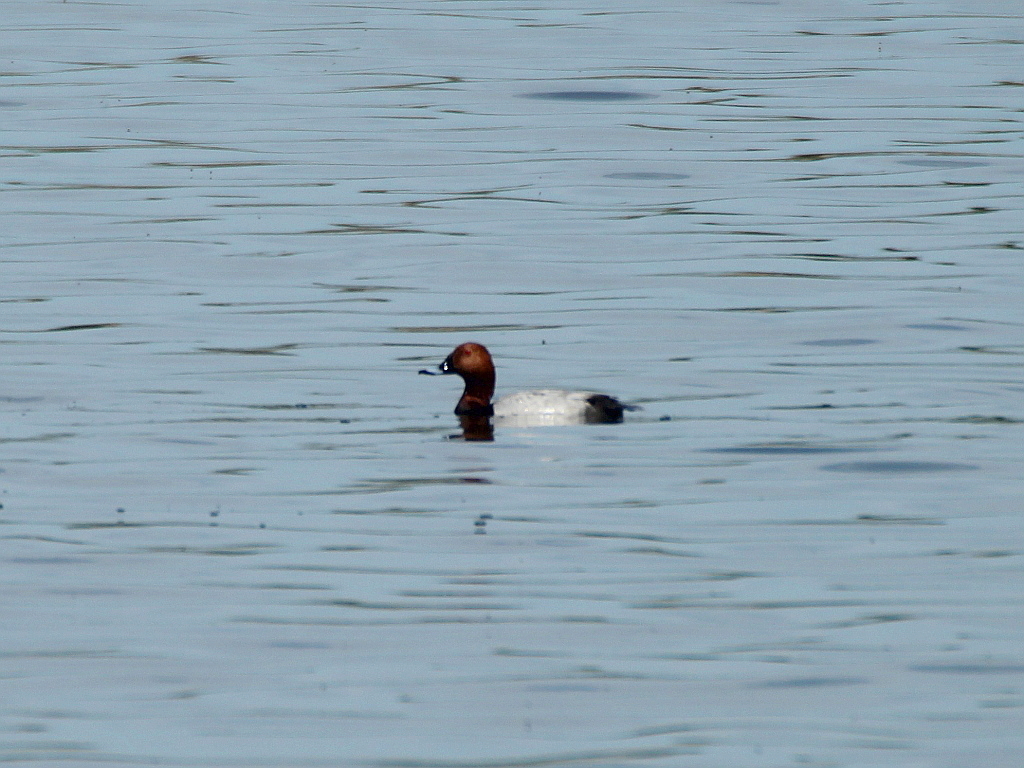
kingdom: Animalia
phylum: Chordata
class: Aves
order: Anseriformes
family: Anatidae
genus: Aythya
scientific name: Aythya ferina
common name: Common pochard
